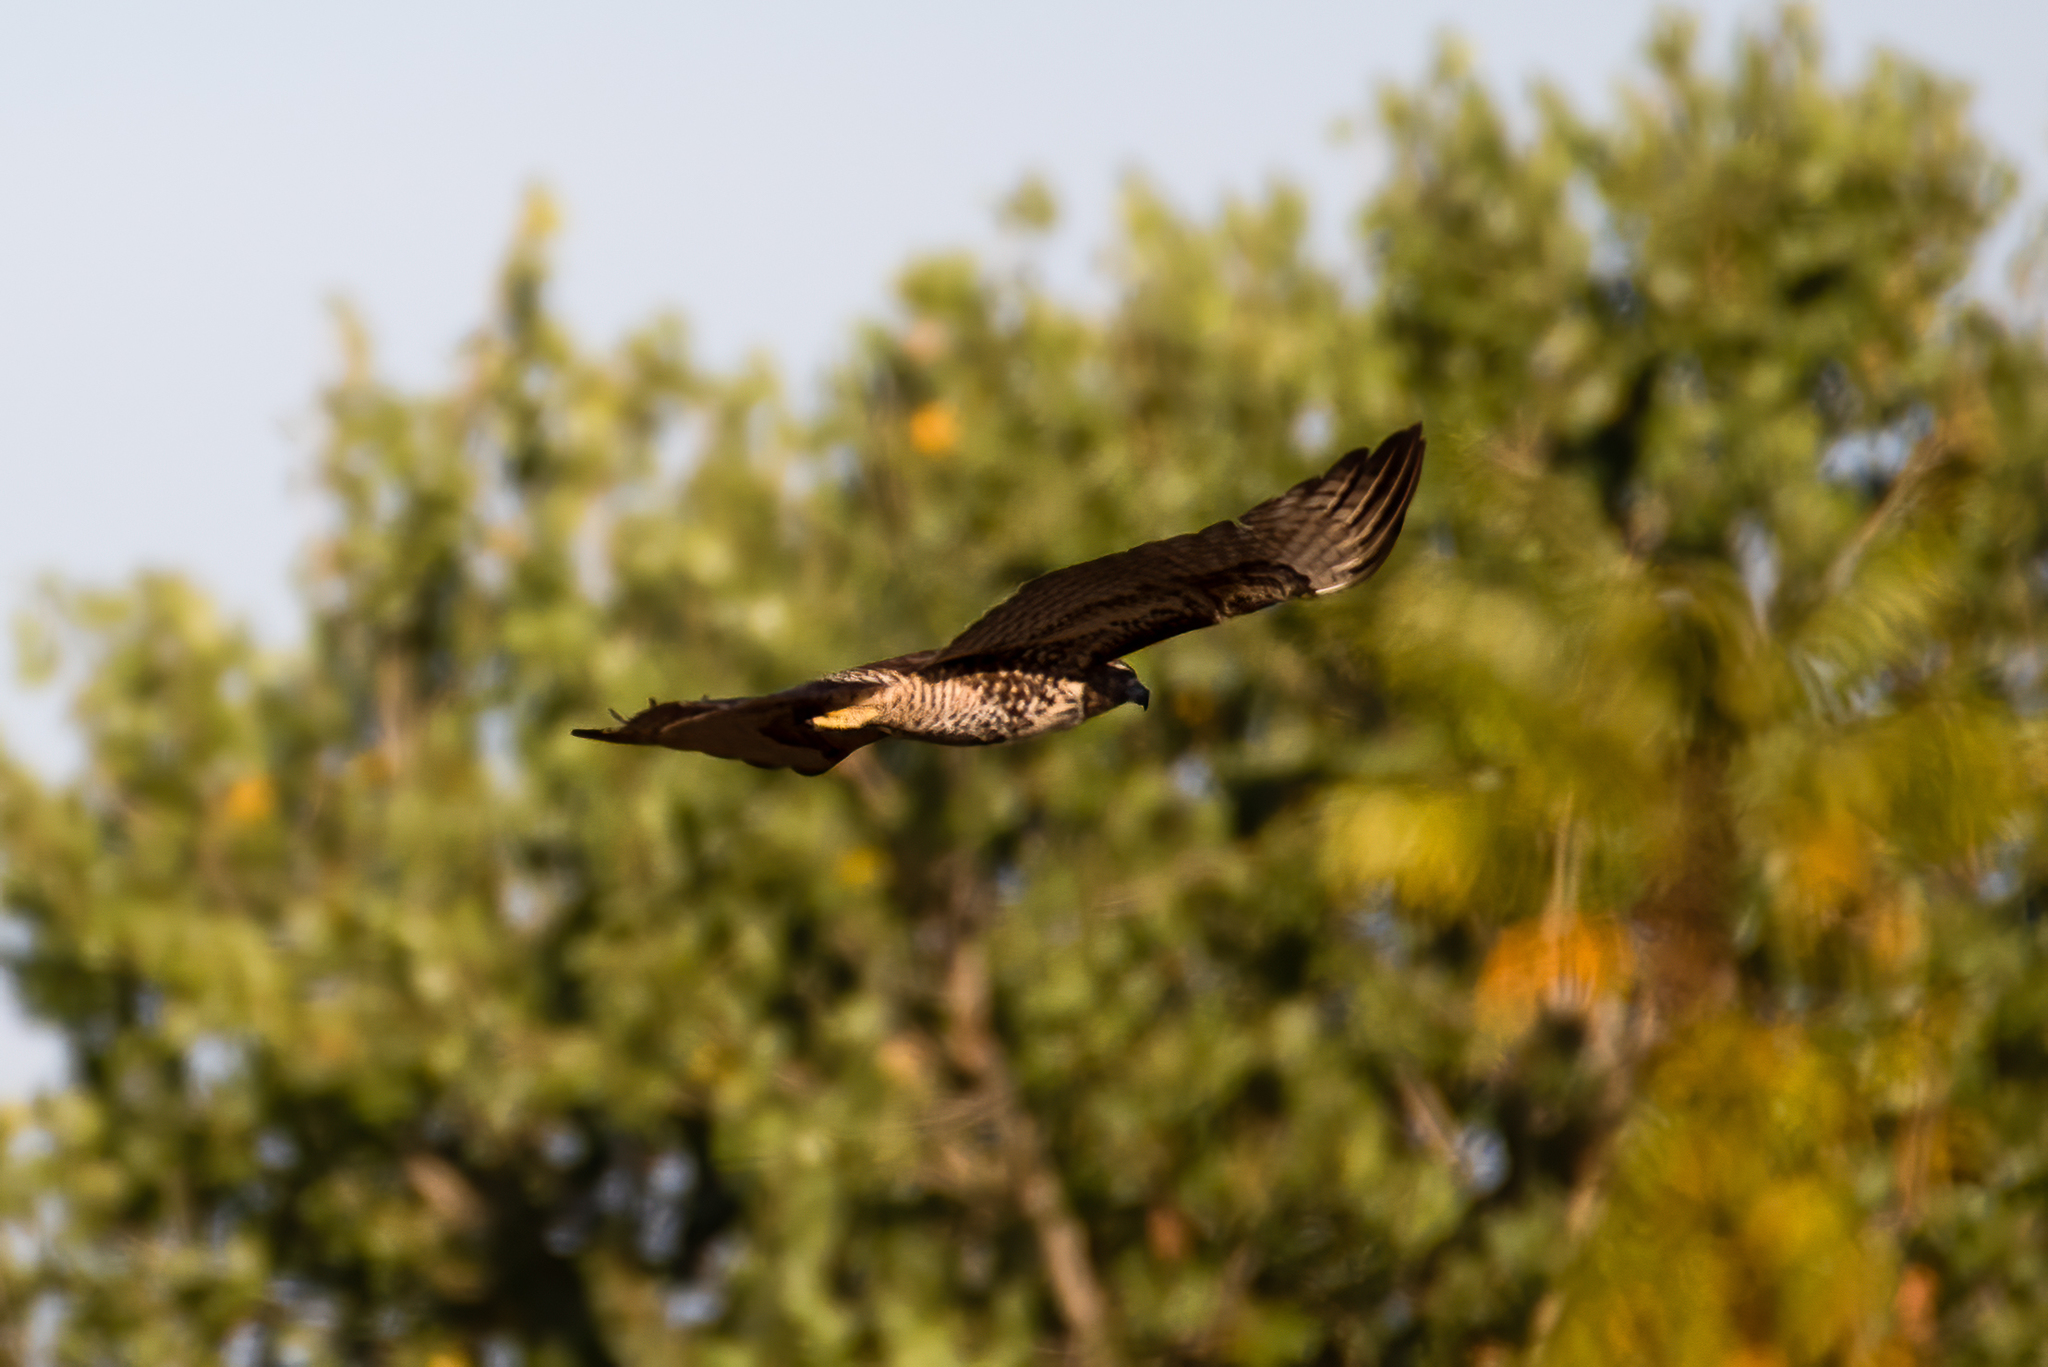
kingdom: Animalia
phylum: Chordata
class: Aves
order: Accipitriformes
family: Accipitridae
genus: Buteo
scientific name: Buteo jamaicensis
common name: Red-tailed hawk
